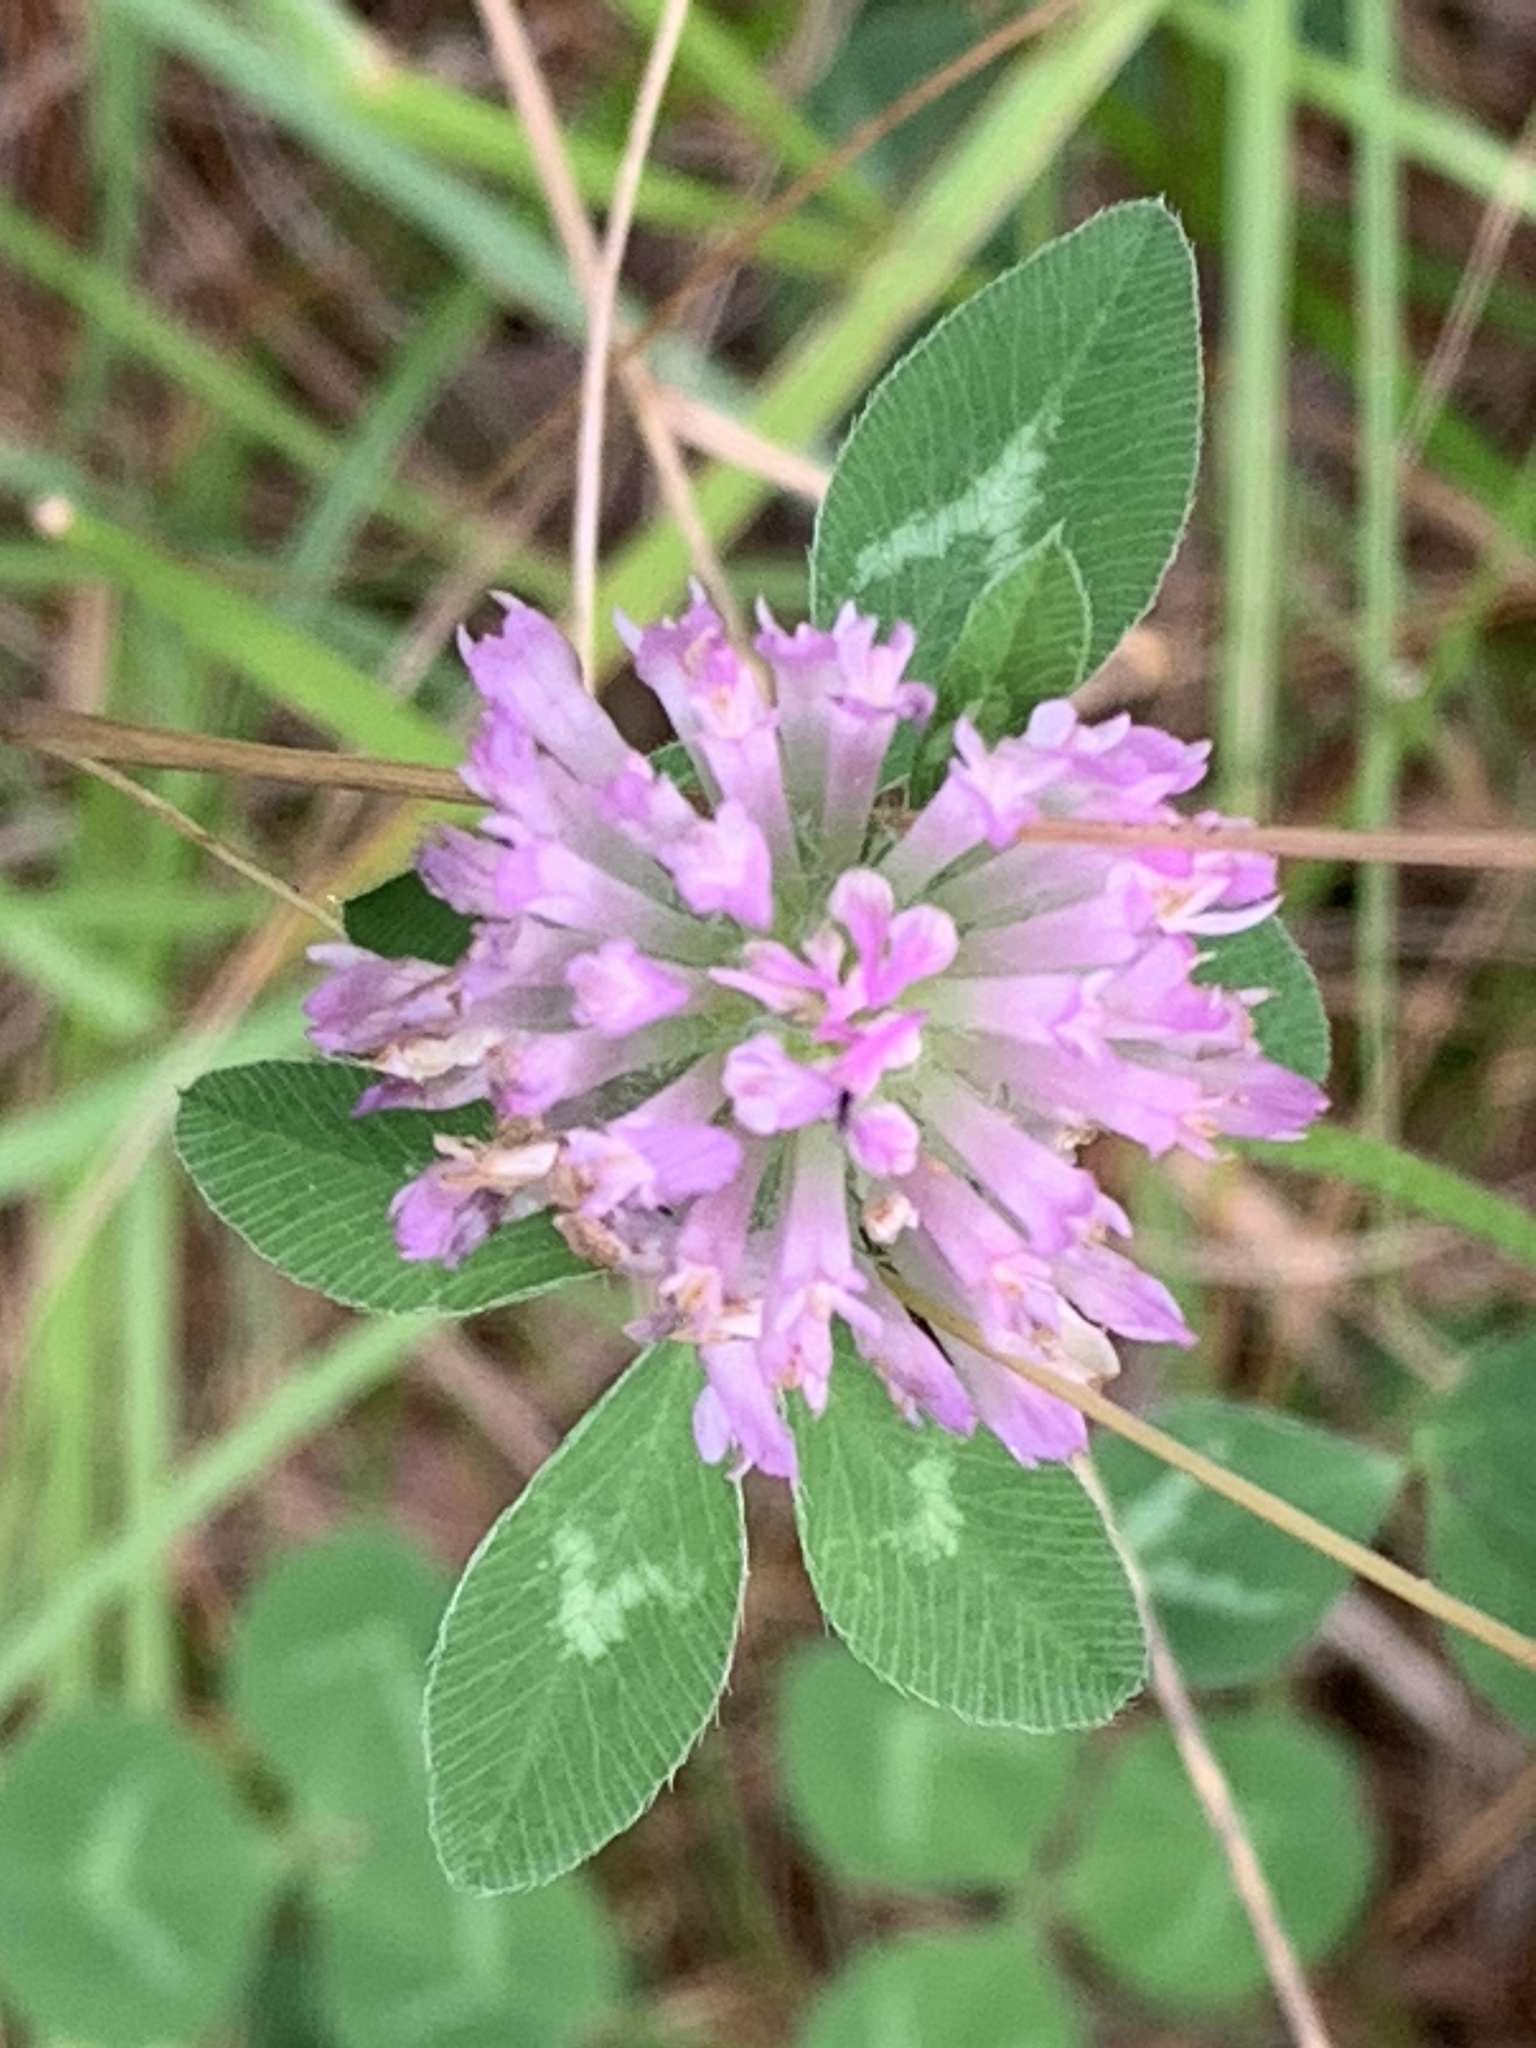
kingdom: Plantae
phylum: Tracheophyta
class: Magnoliopsida
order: Fabales
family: Fabaceae
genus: Trifolium
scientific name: Trifolium pratense
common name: Red clover
